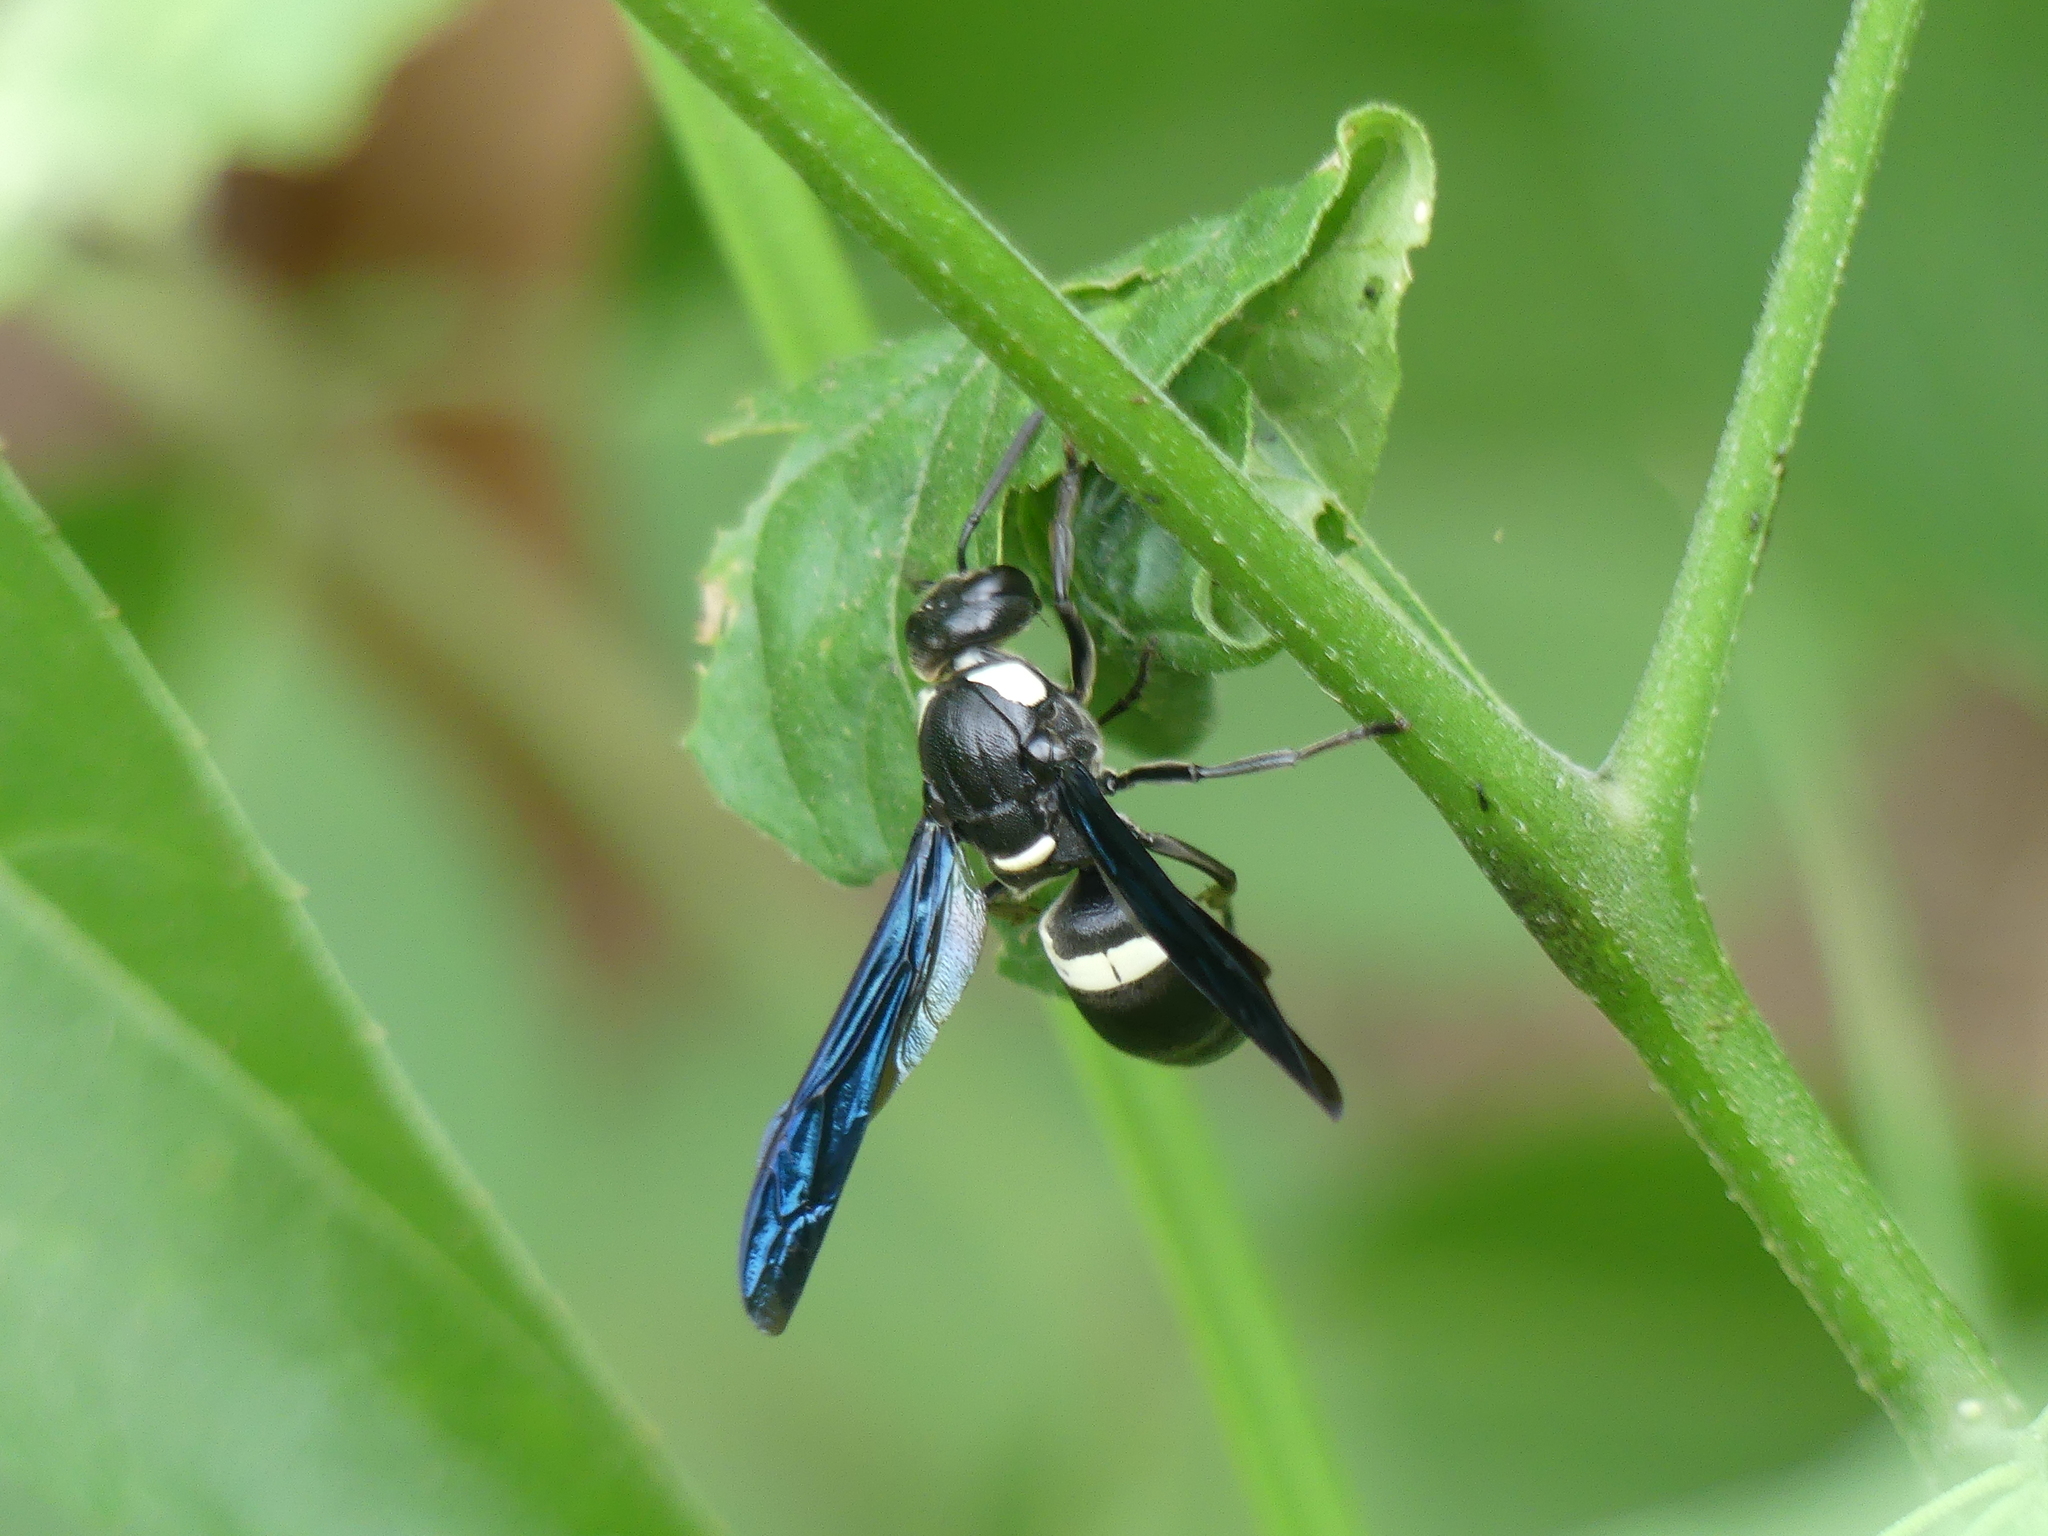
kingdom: Animalia
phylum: Arthropoda
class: Insecta
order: Hymenoptera
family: Eumenidae
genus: Monobia
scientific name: Monobia quadridens
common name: Four-toothed mason wasp
